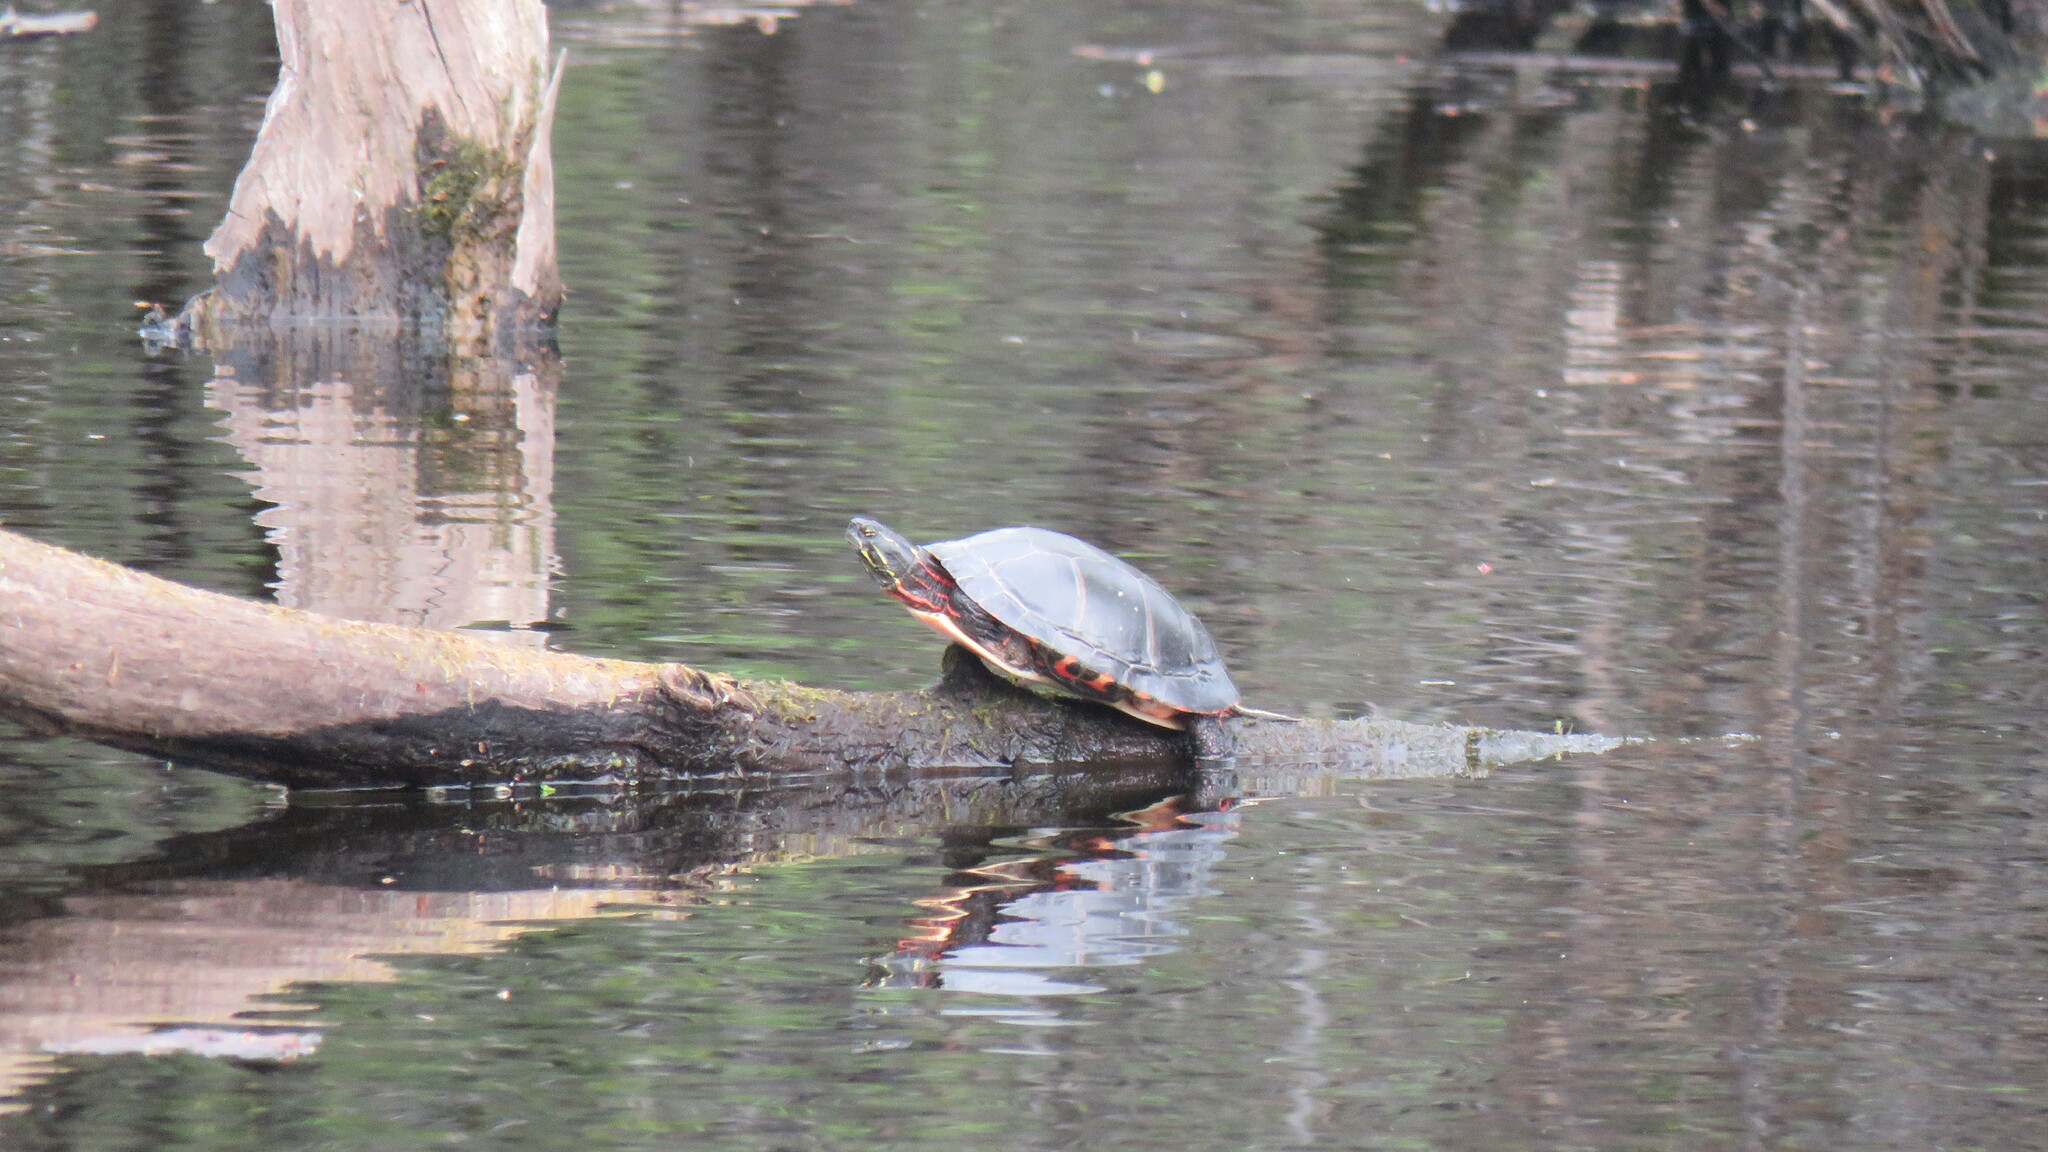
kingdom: Animalia
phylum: Chordata
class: Testudines
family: Emydidae
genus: Chrysemys
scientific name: Chrysemys picta
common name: Painted turtle
